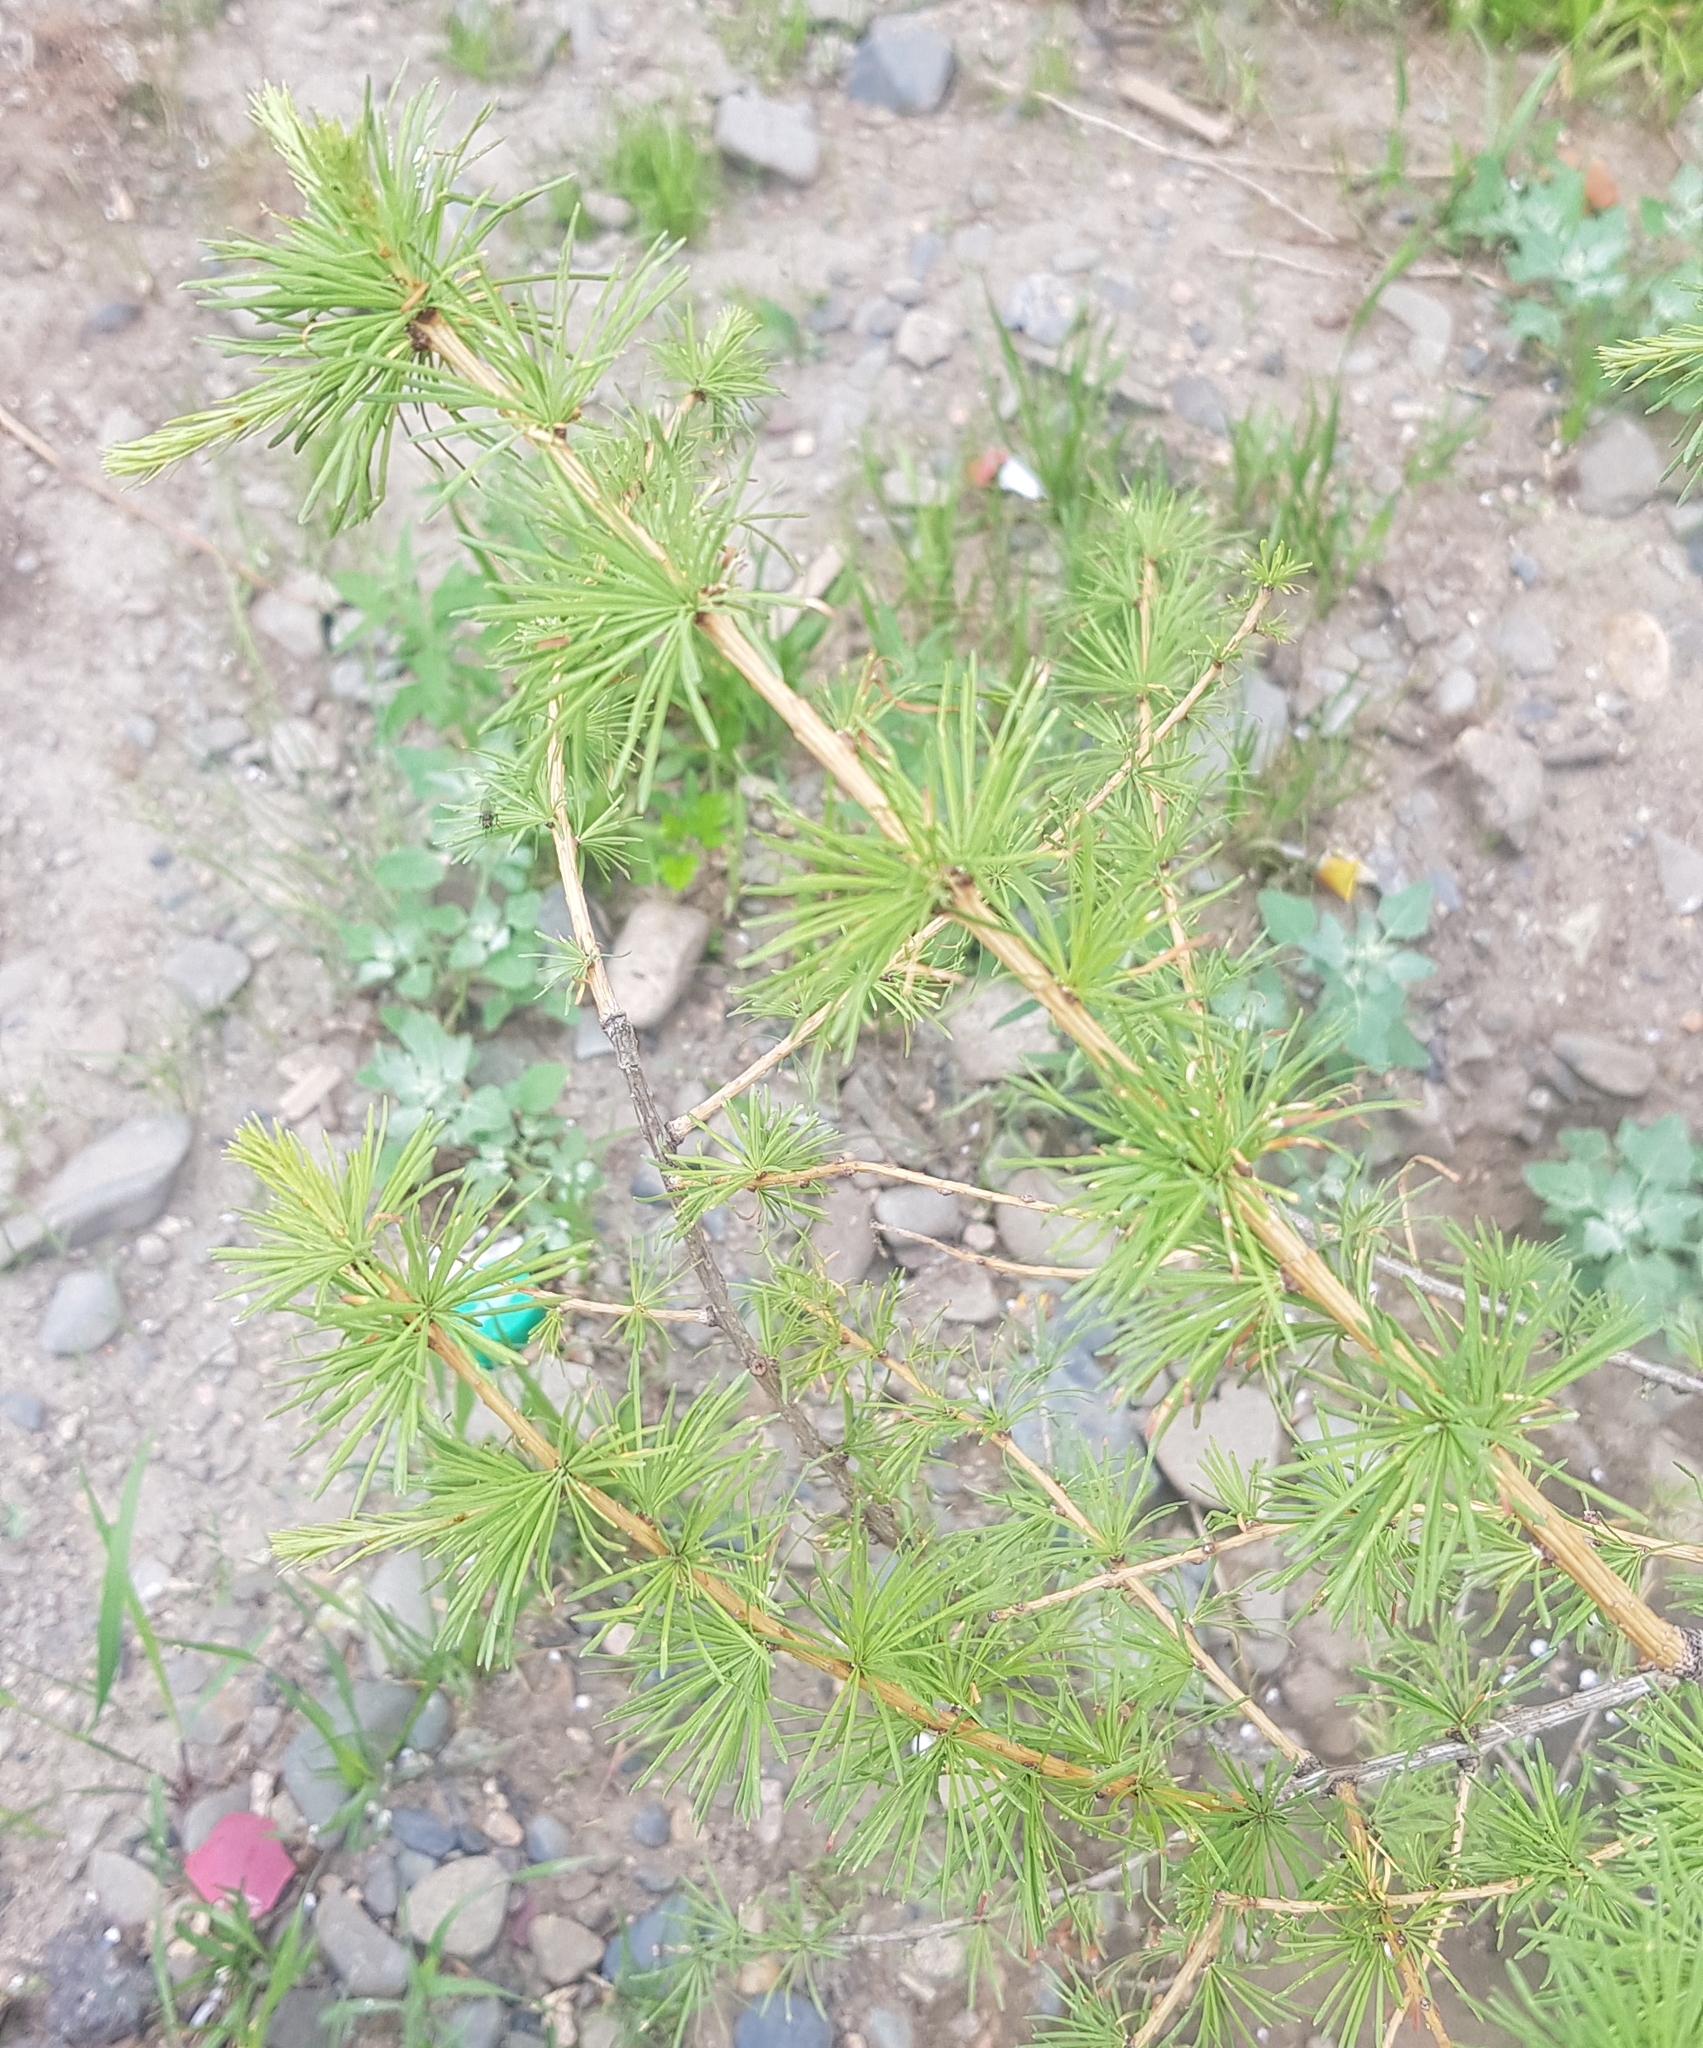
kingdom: Plantae
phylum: Tracheophyta
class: Pinopsida
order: Pinales
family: Pinaceae
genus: Larix
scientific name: Larix sibirica
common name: Siberian larch
